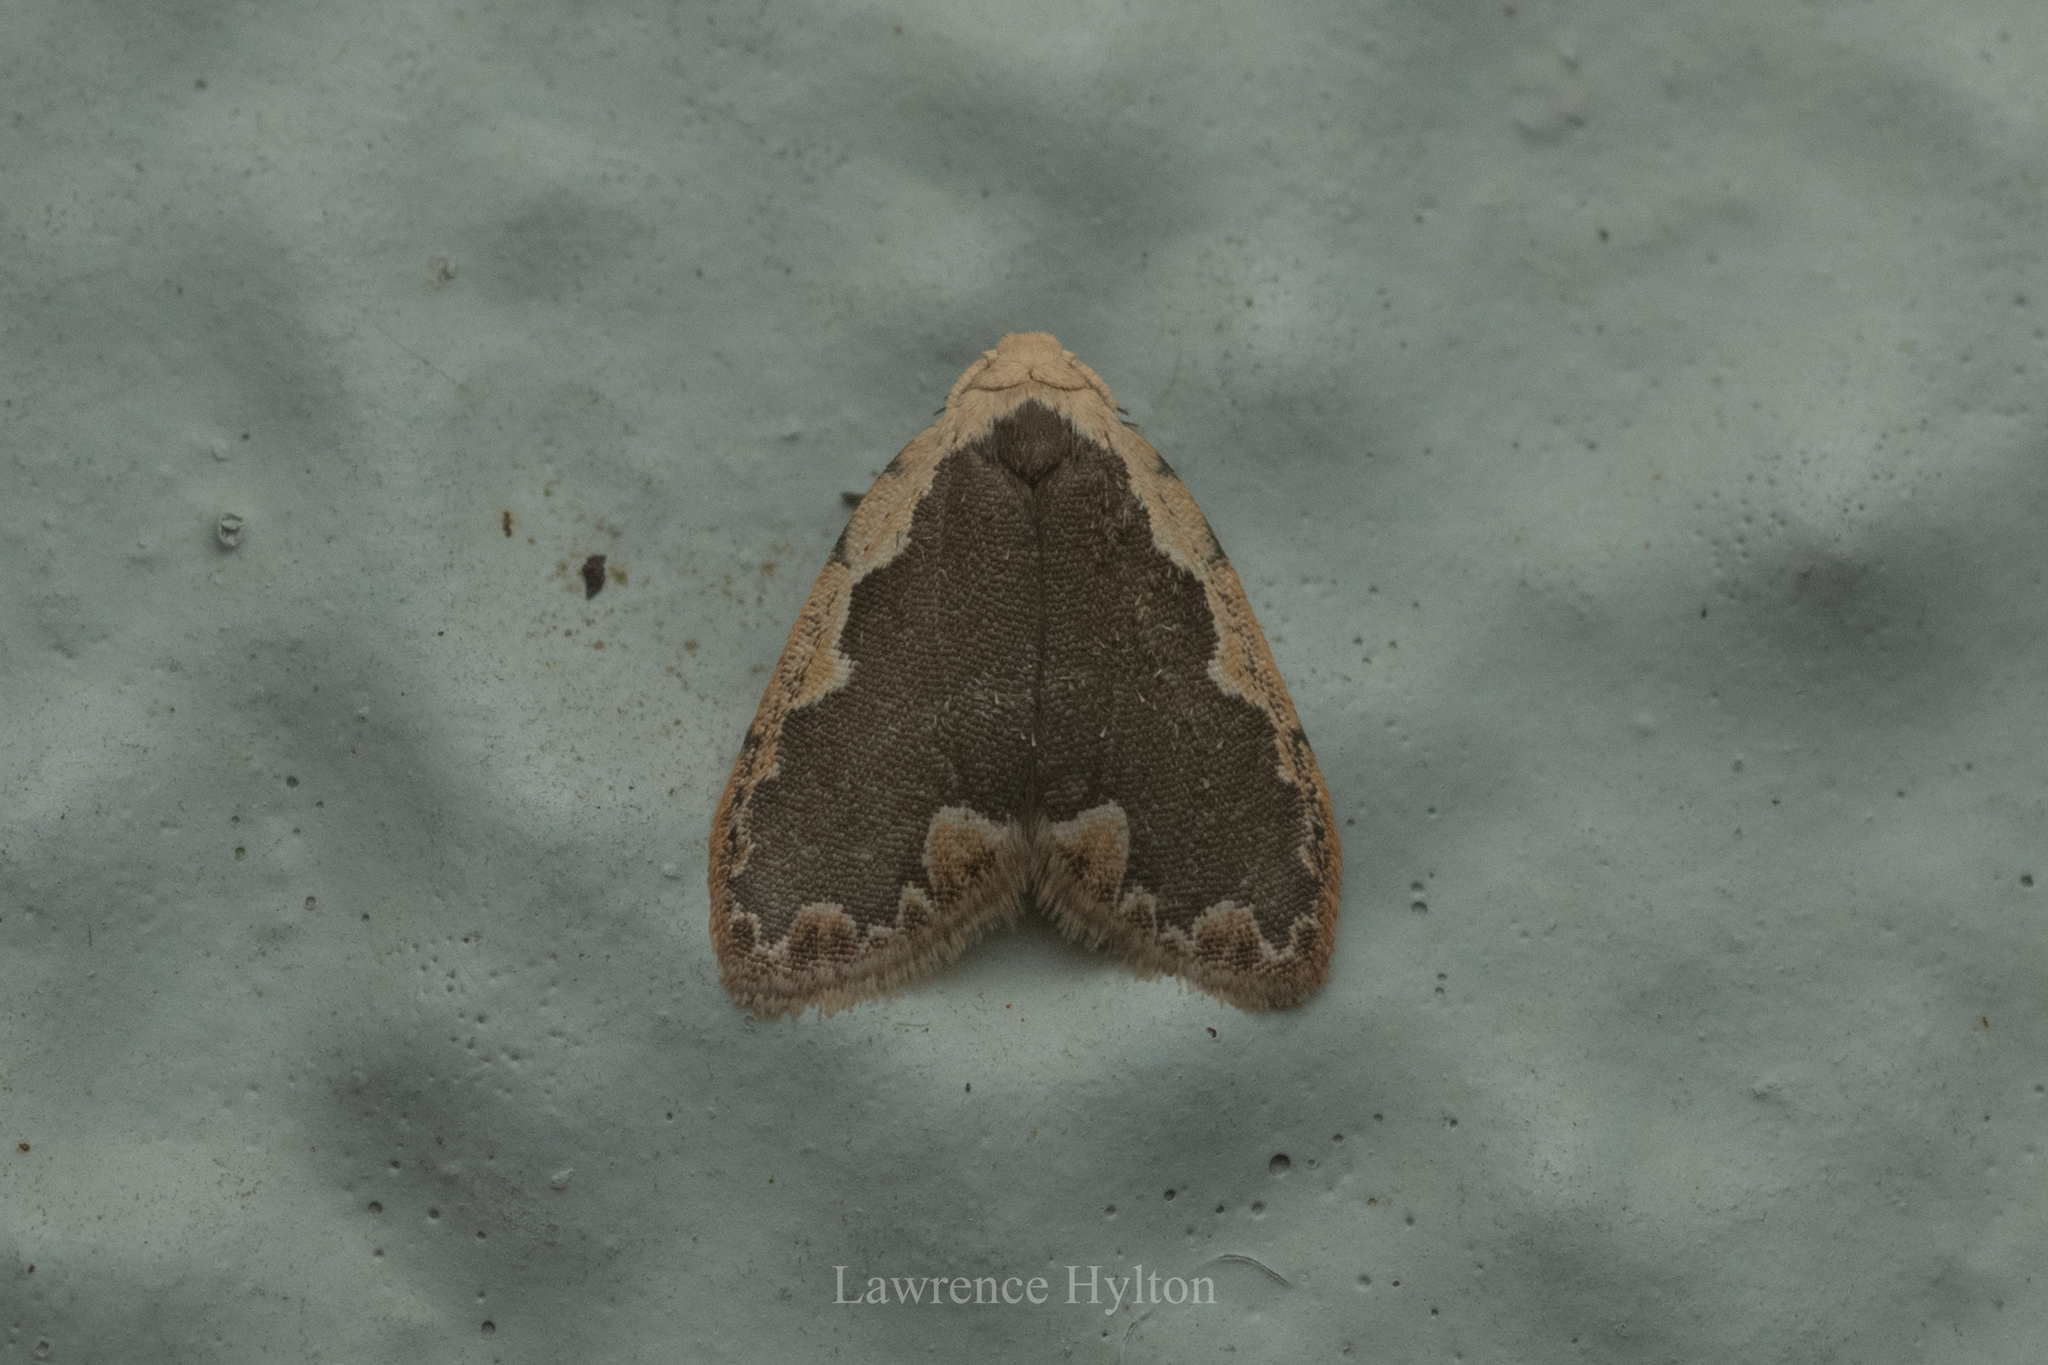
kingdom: Animalia
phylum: Arthropoda
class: Insecta
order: Lepidoptera
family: Erebidae
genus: Diduga
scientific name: Diduga flavicostata
